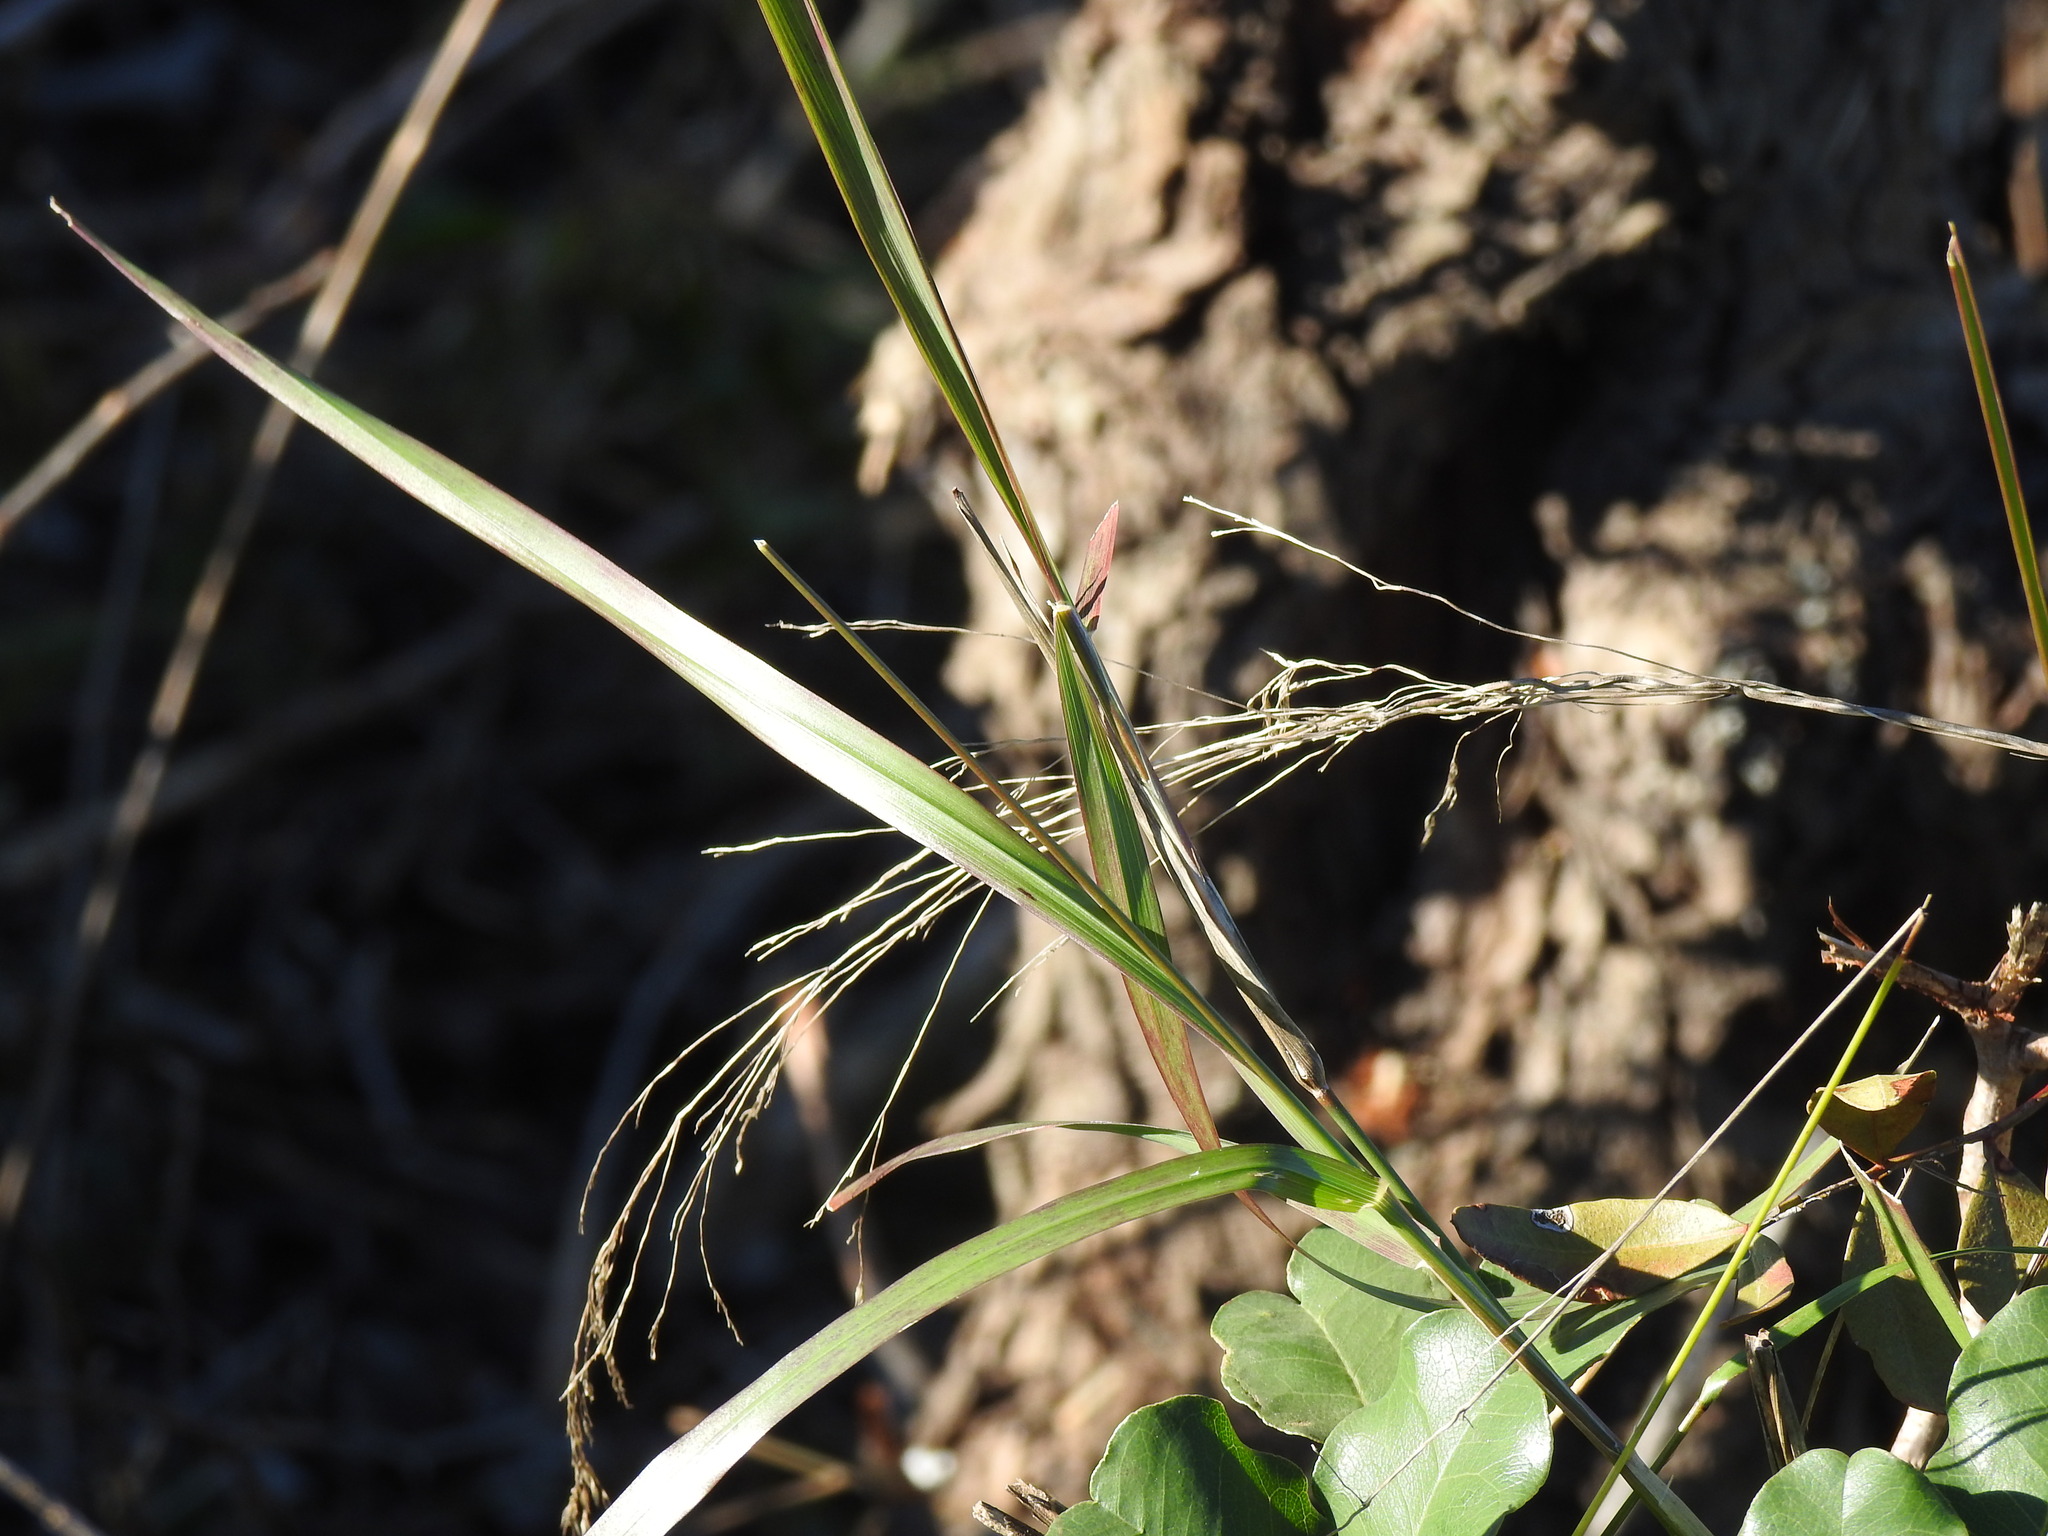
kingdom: Plantae
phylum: Tracheophyta
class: Liliopsida
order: Poales
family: Poaceae
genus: Oloptum
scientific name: Oloptum miliaceum
